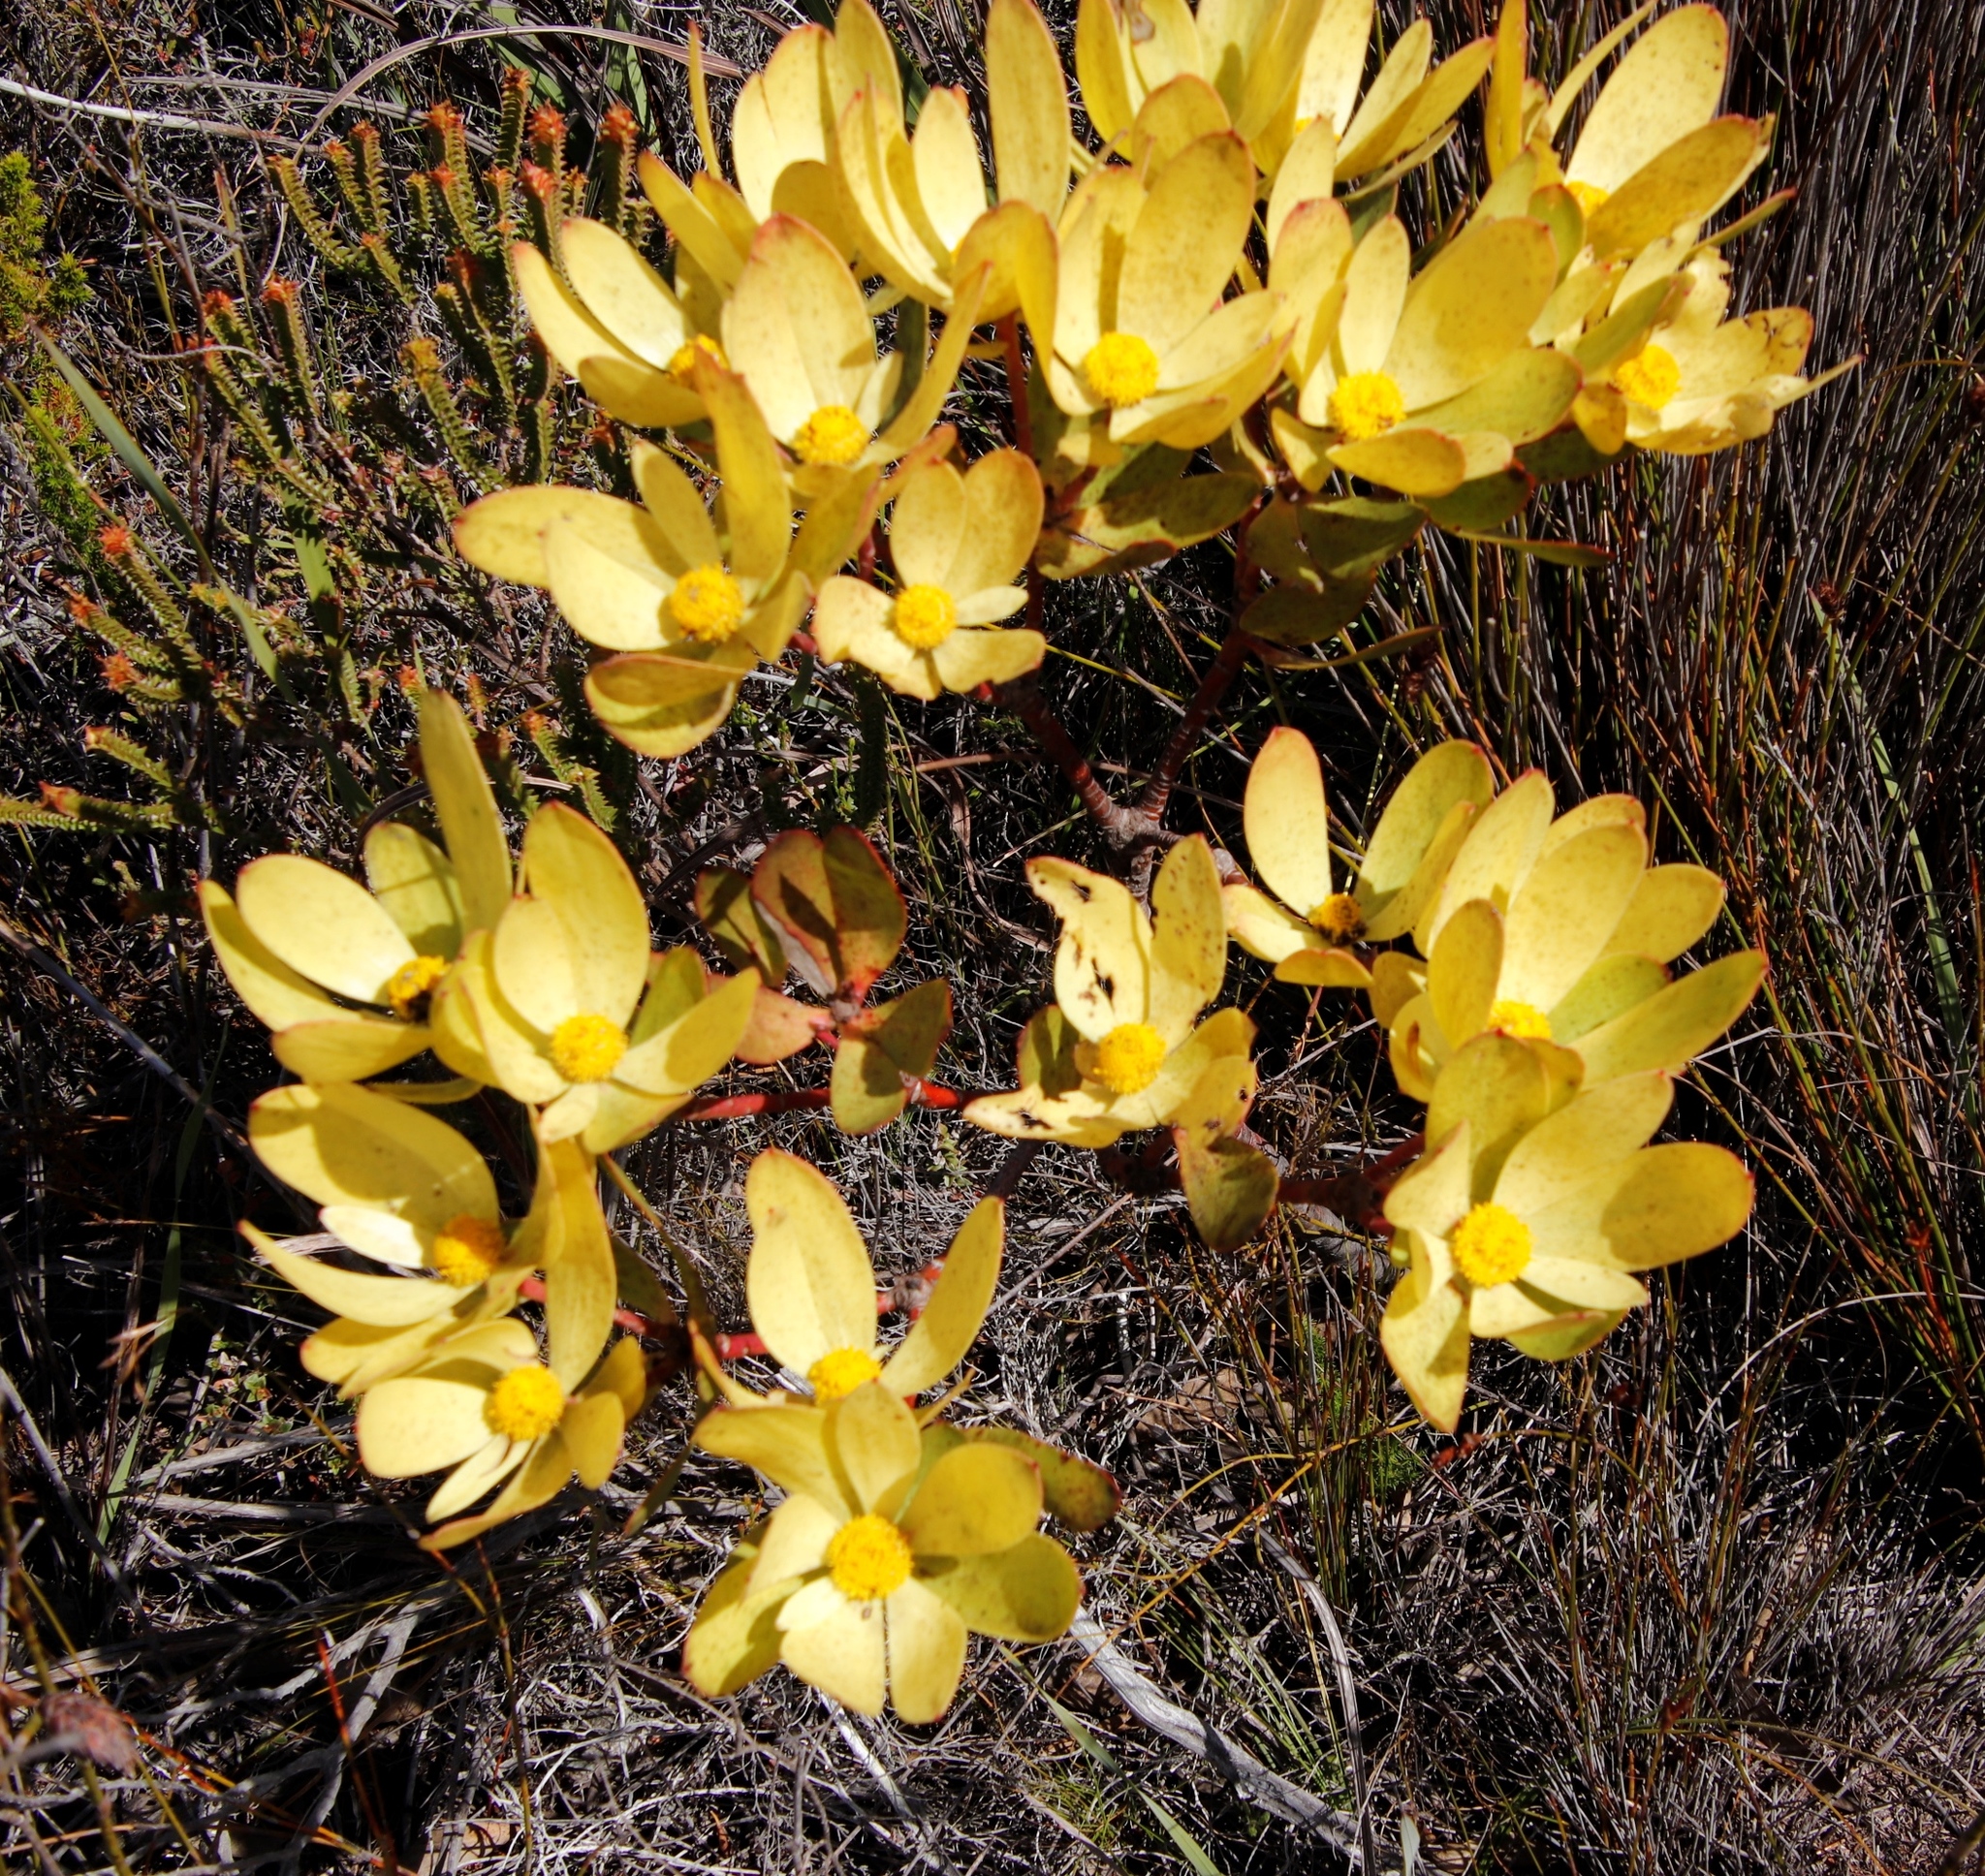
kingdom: Plantae
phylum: Tracheophyta
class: Magnoliopsida
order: Proteales
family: Proteaceae
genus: Leucadendron
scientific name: Leucadendron gandogeri
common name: Broad-leaf conebush
